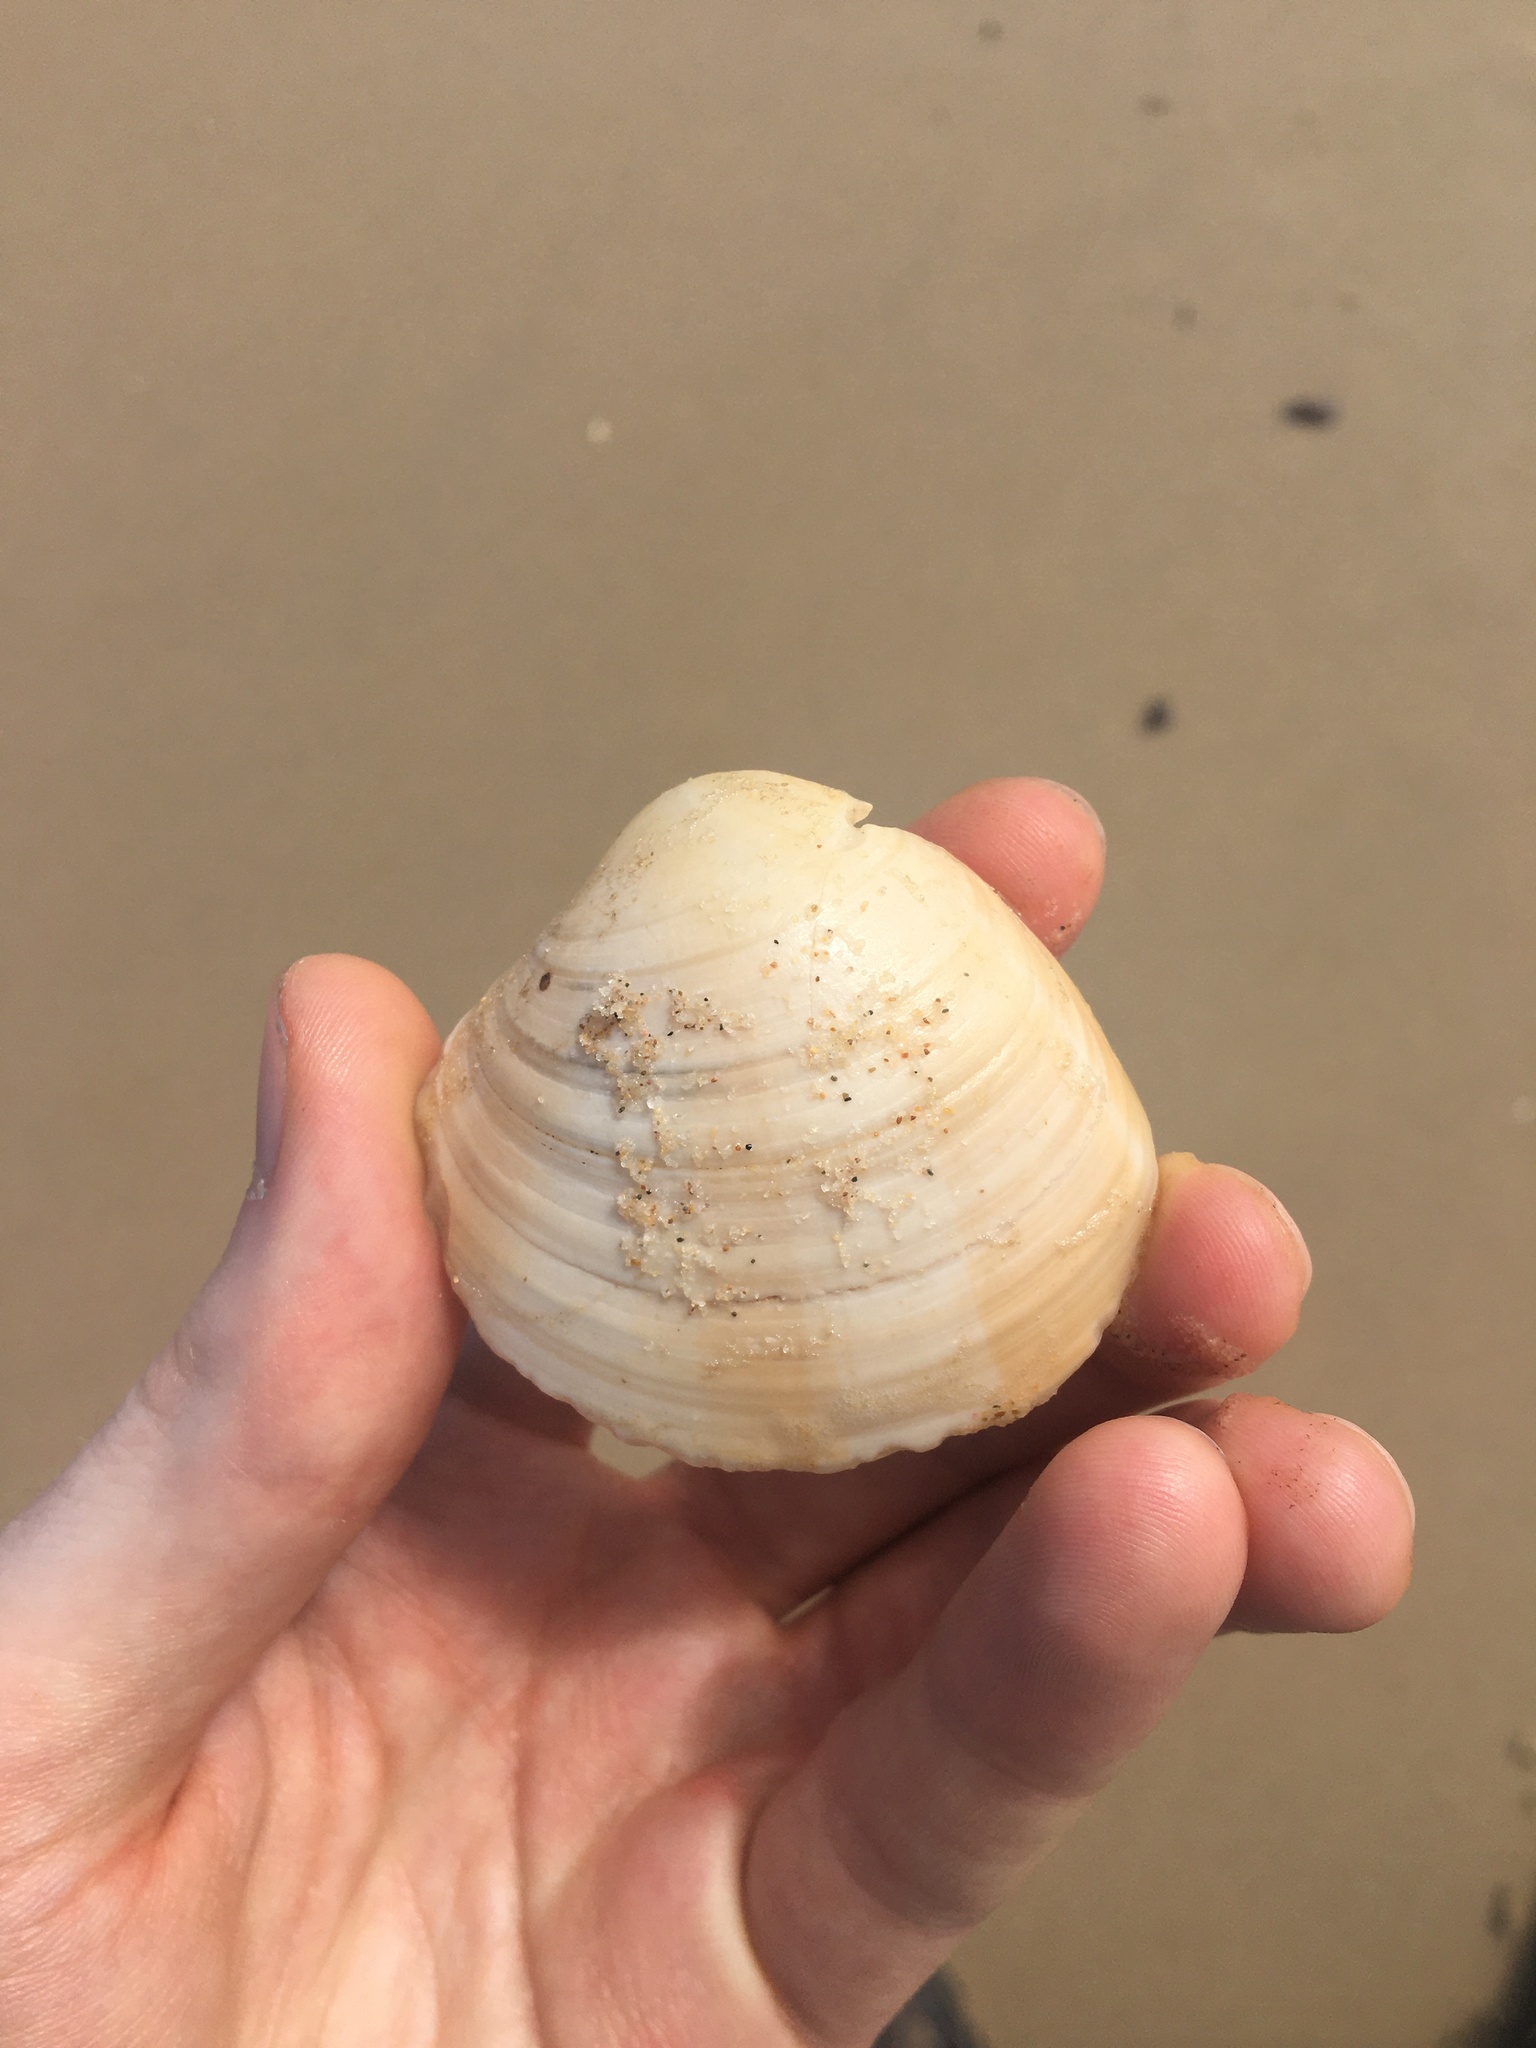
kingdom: Animalia
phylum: Mollusca
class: Bivalvia
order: Venerida
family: Veneridae
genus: Bassina
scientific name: Bassina pachyphylla
